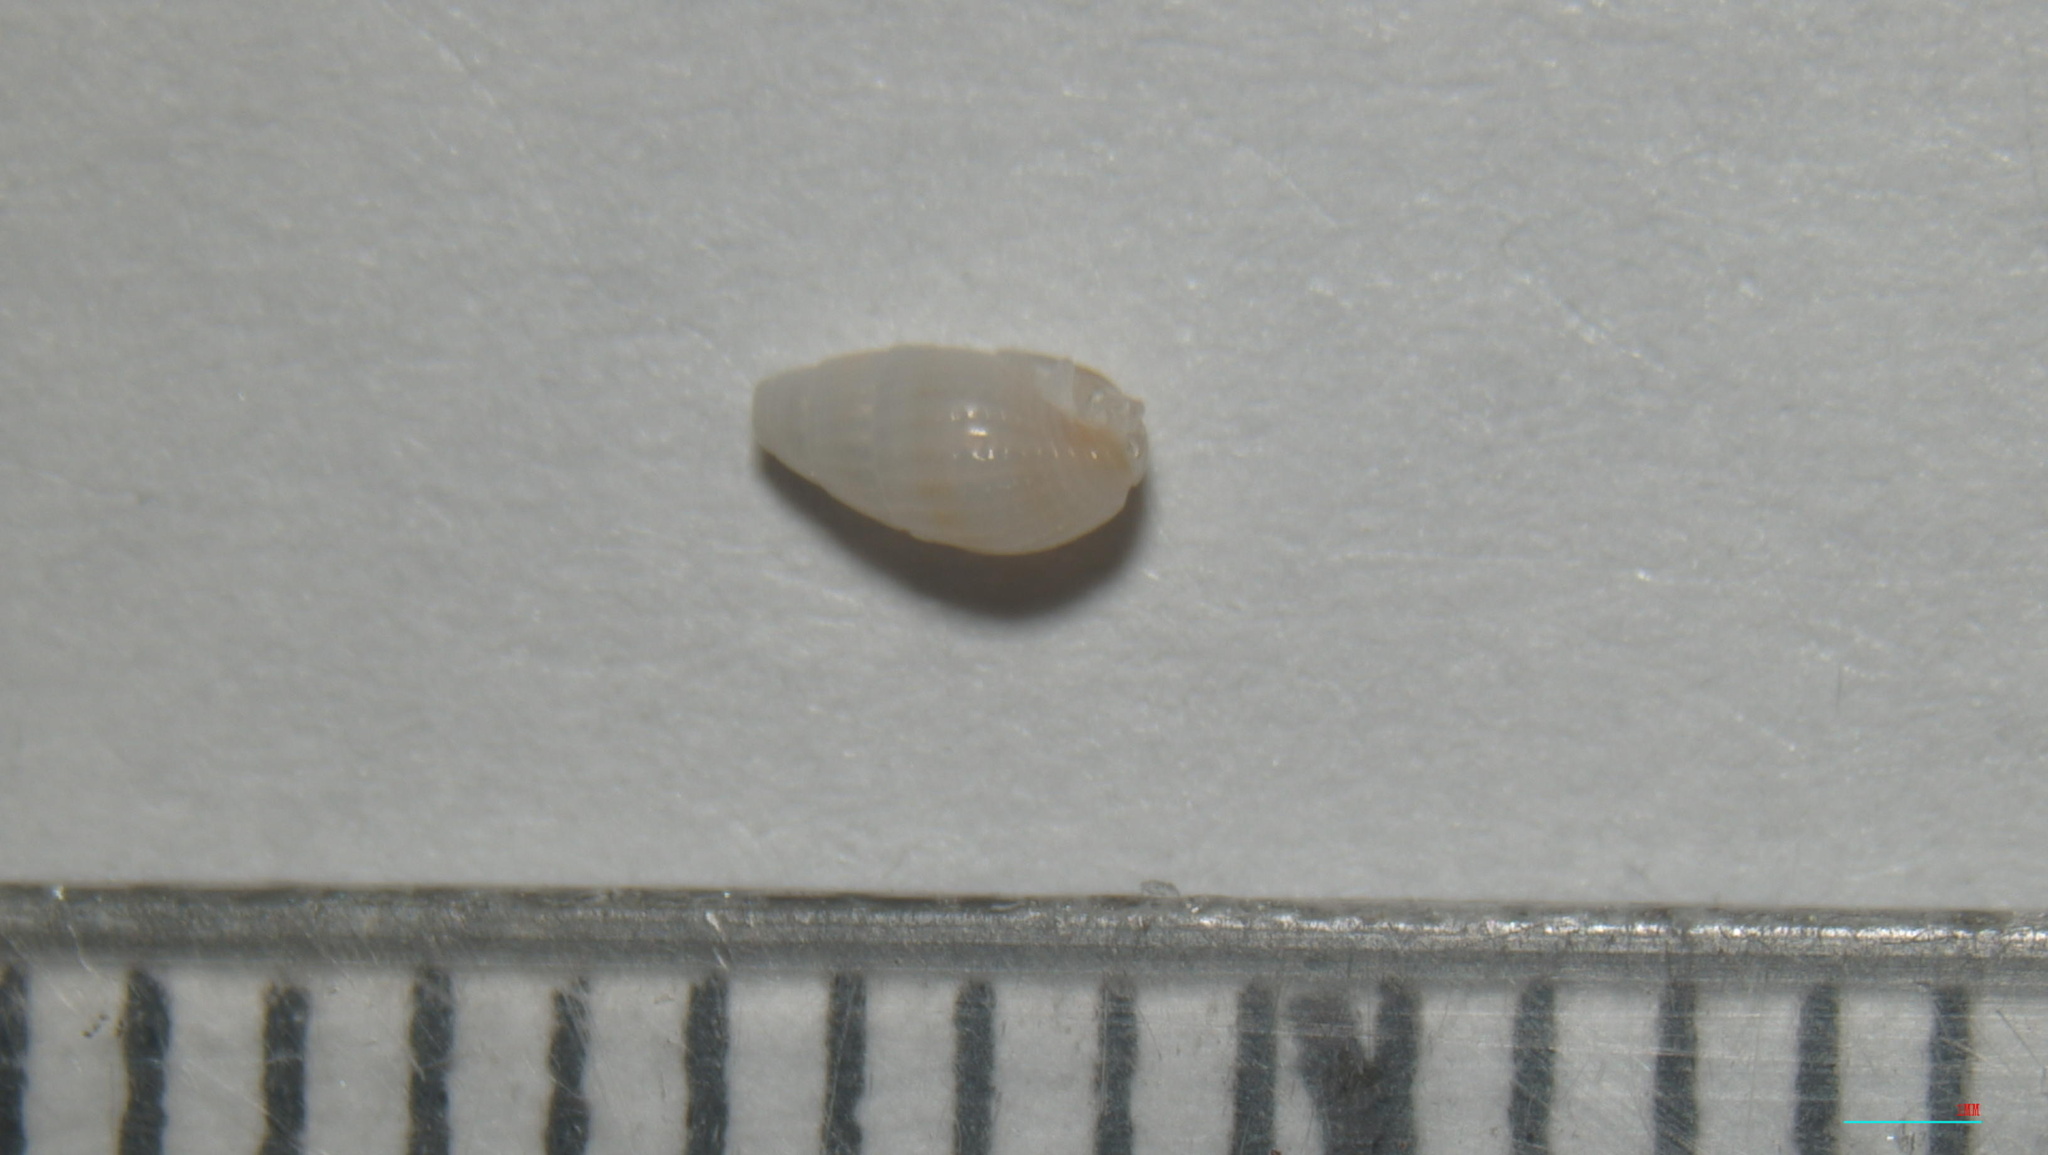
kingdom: Animalia
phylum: Mollusca
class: Gastropoda
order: Neogastropoda
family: Columbellidae
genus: Parvanachis
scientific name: Parvanachis obesa
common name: Fat dovesnail
